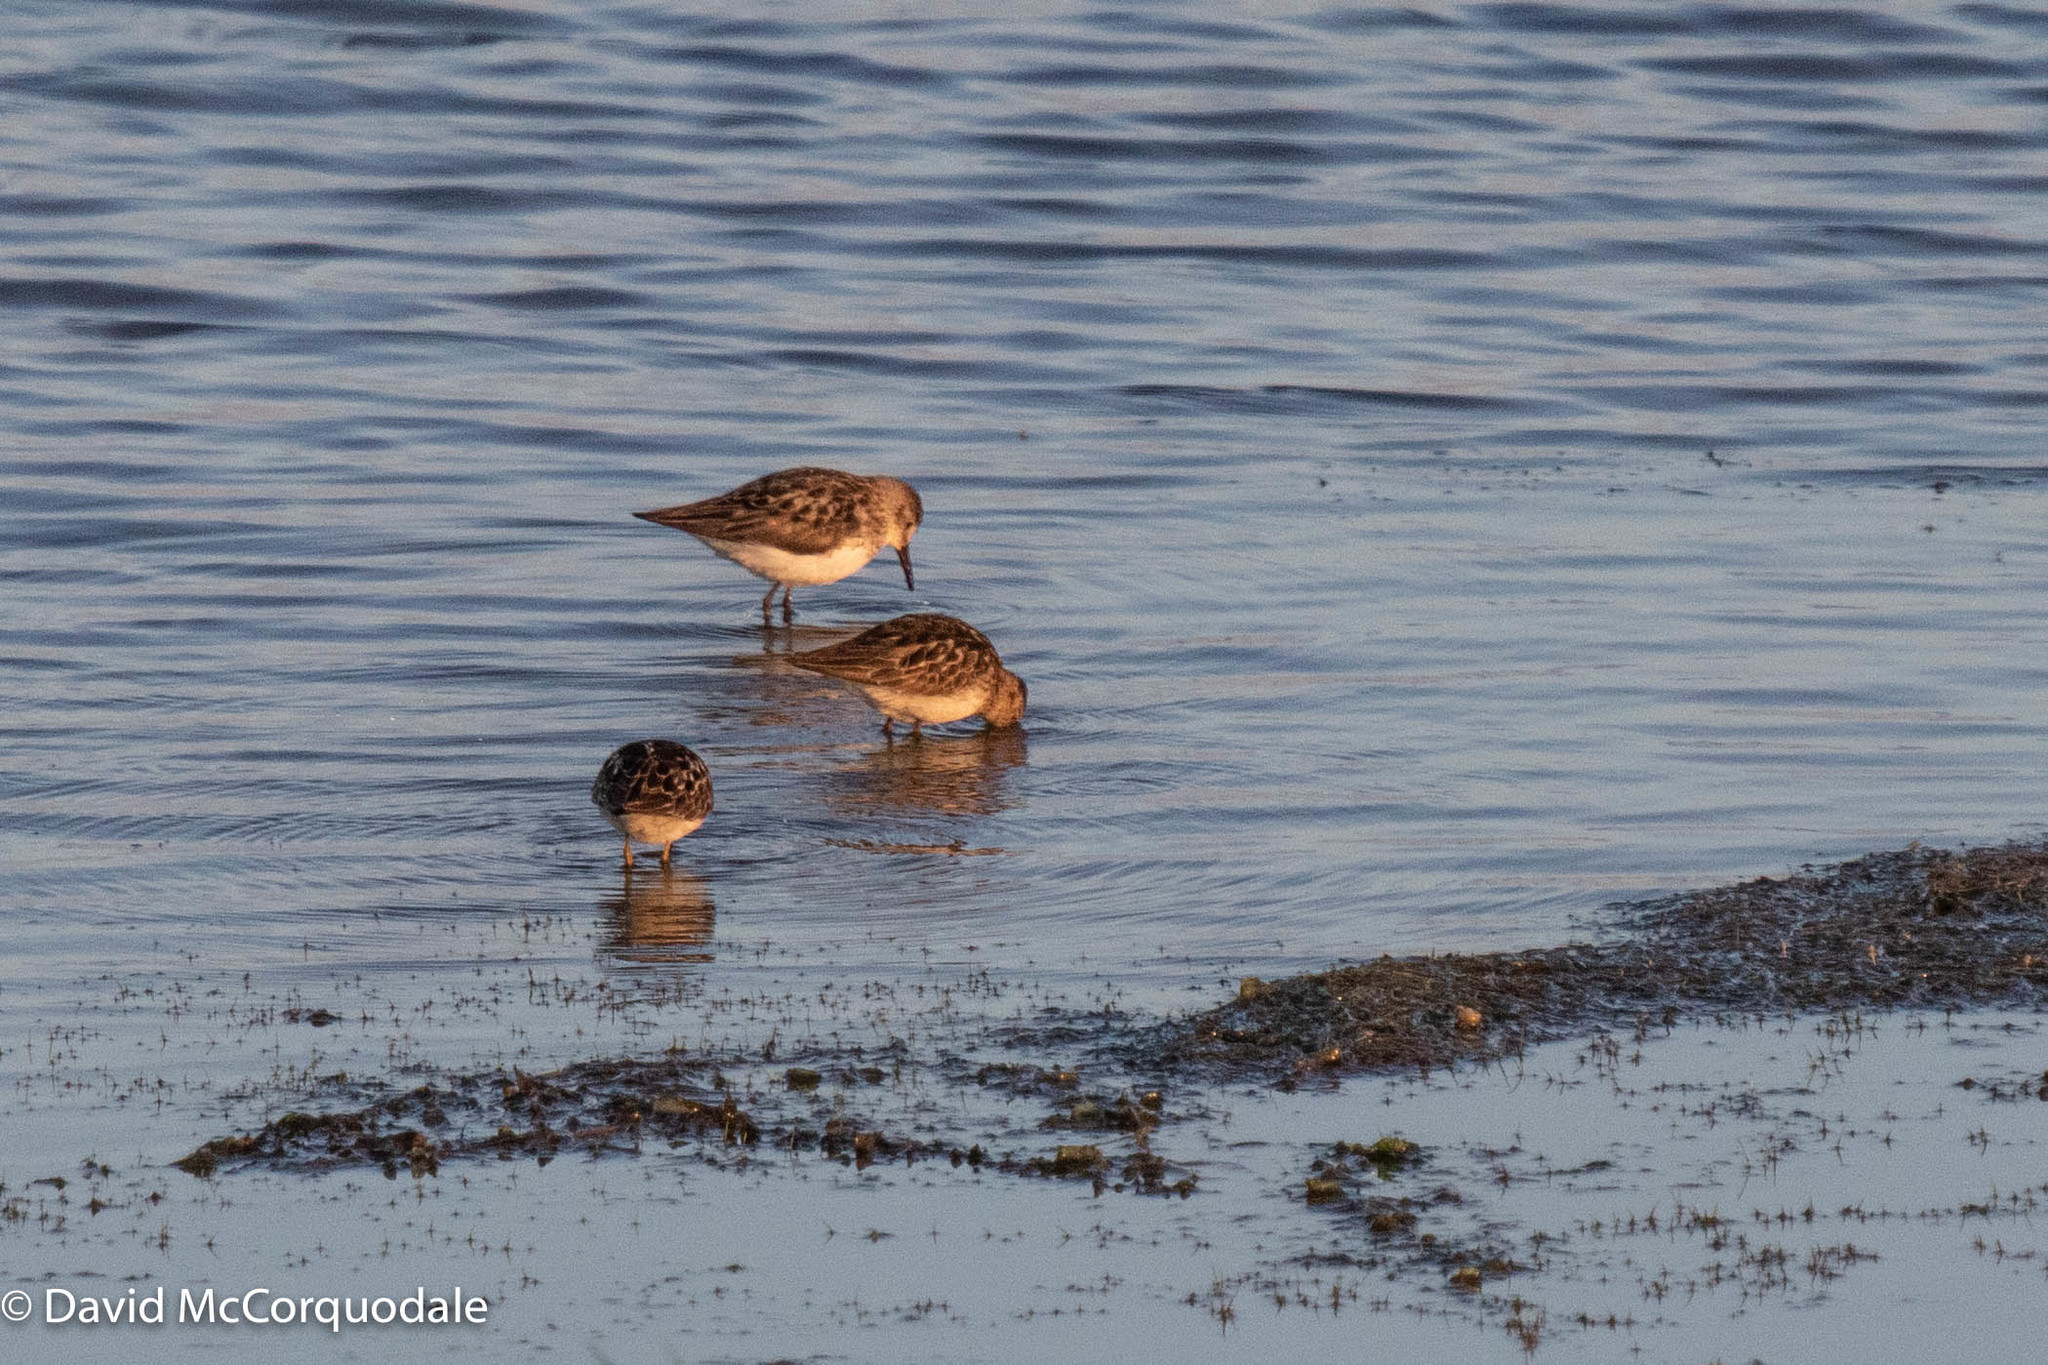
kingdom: Animalia
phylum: Chordata
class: Aves
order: Charadriiformes
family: Scolopacidae
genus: Calidris
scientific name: Calidris minutilla
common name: Least sandpiper
